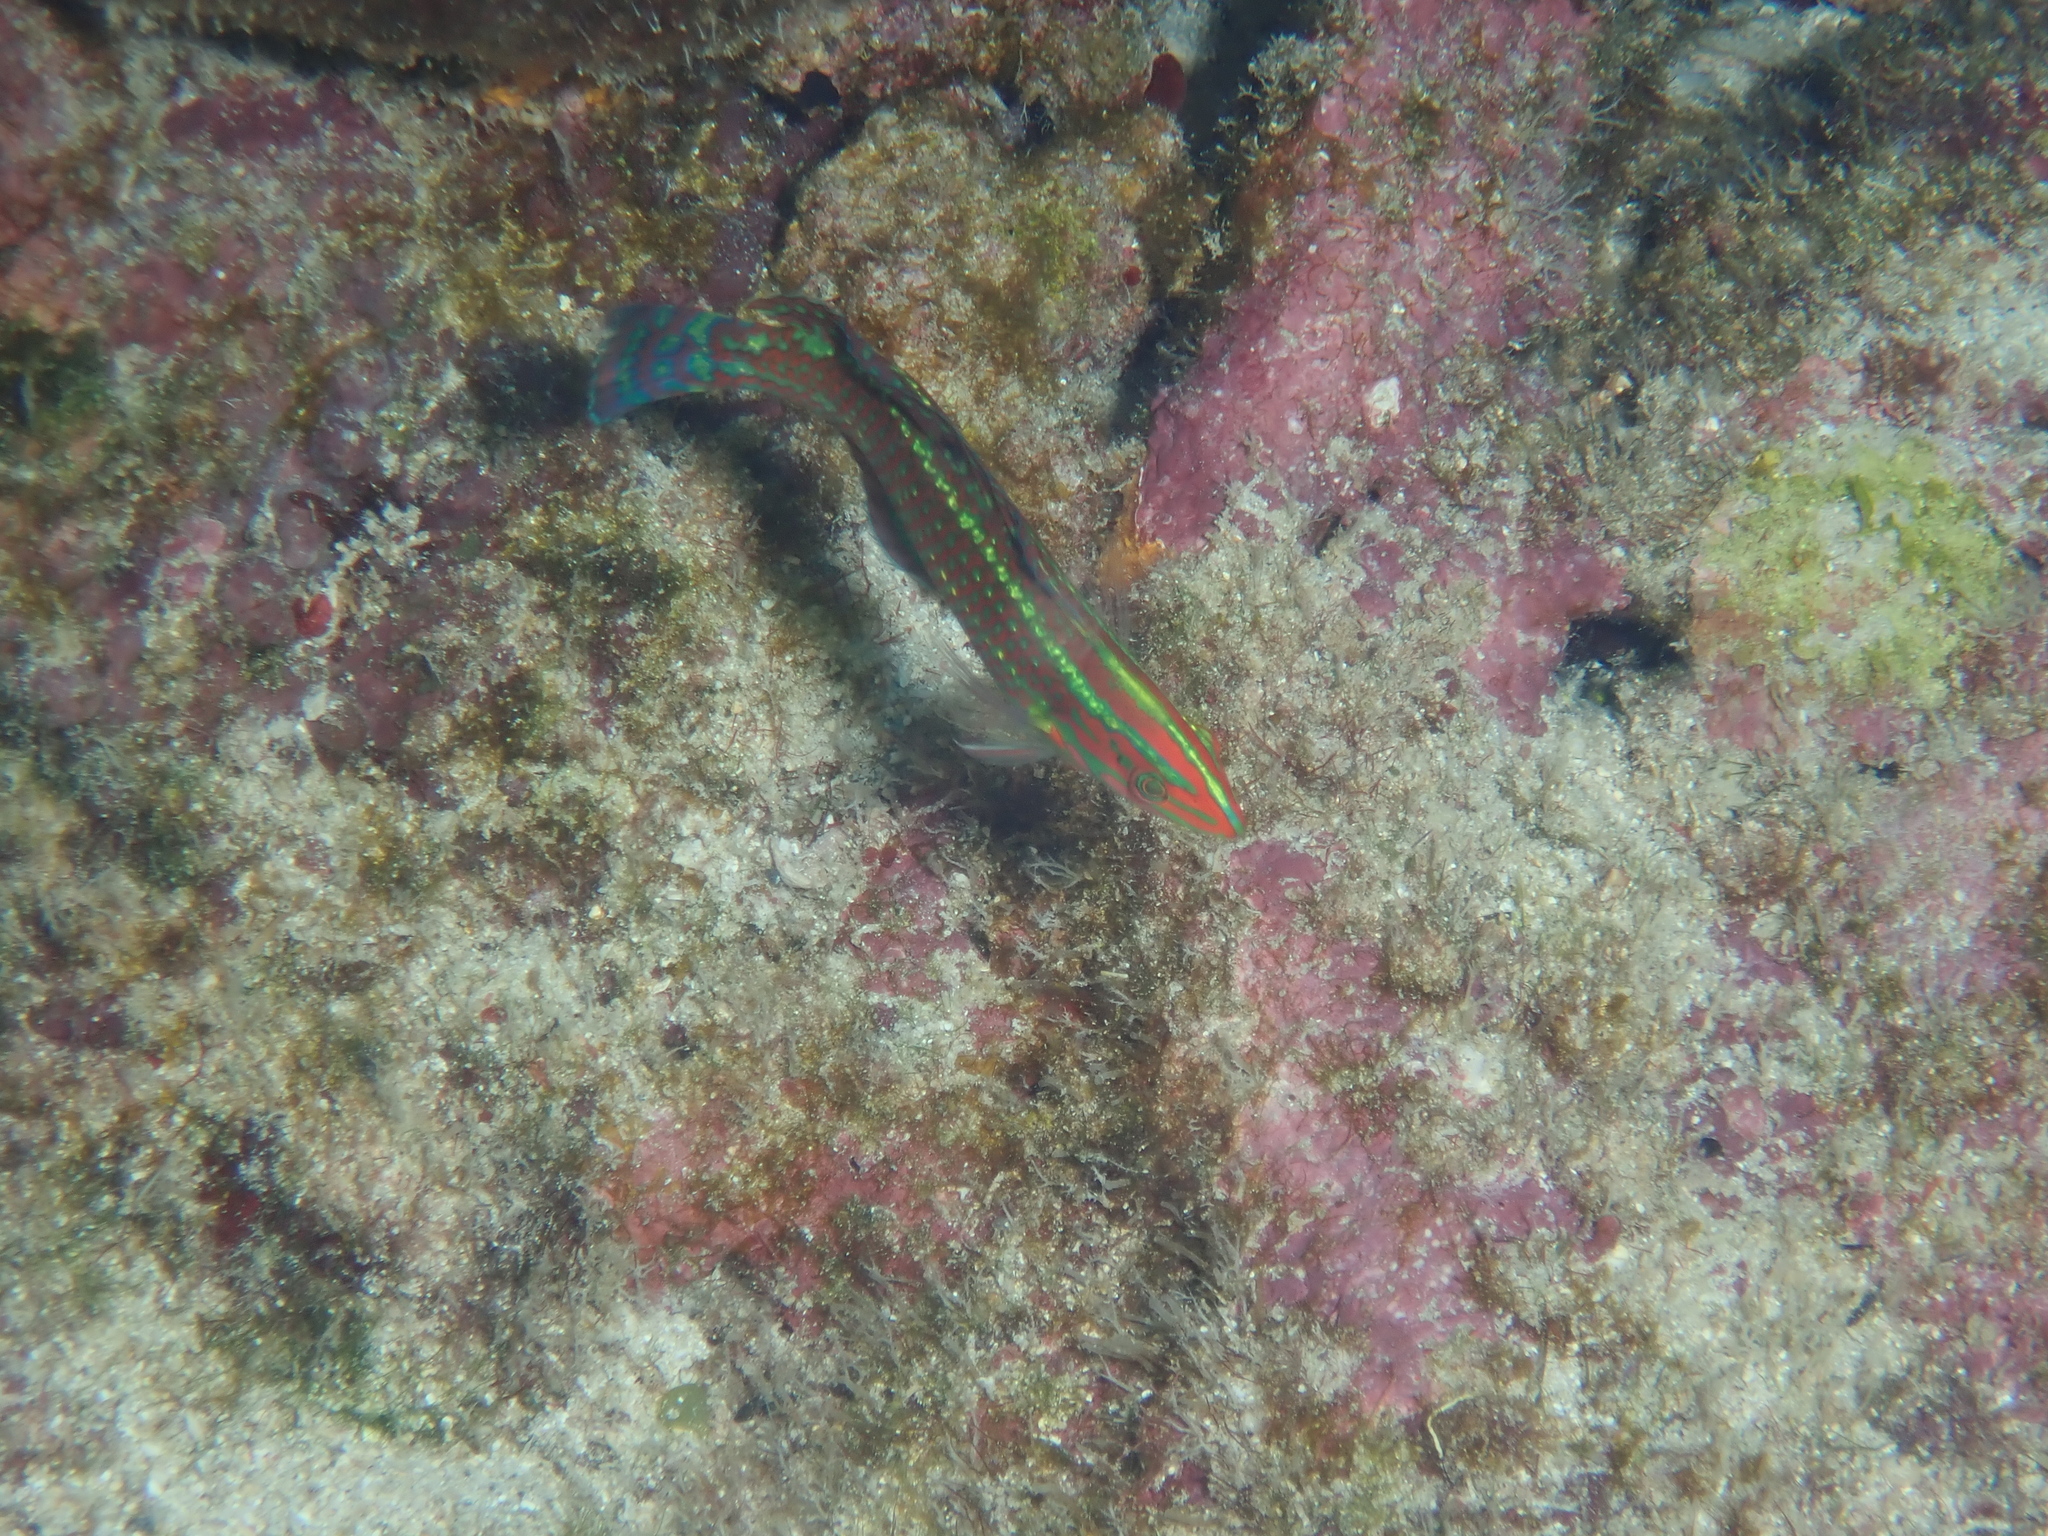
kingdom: Animalia
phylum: Chordata
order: Perciformes
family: Labridae
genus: Halichoeres
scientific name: Halichoeres ornatissimus
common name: Ornamented wrasse
